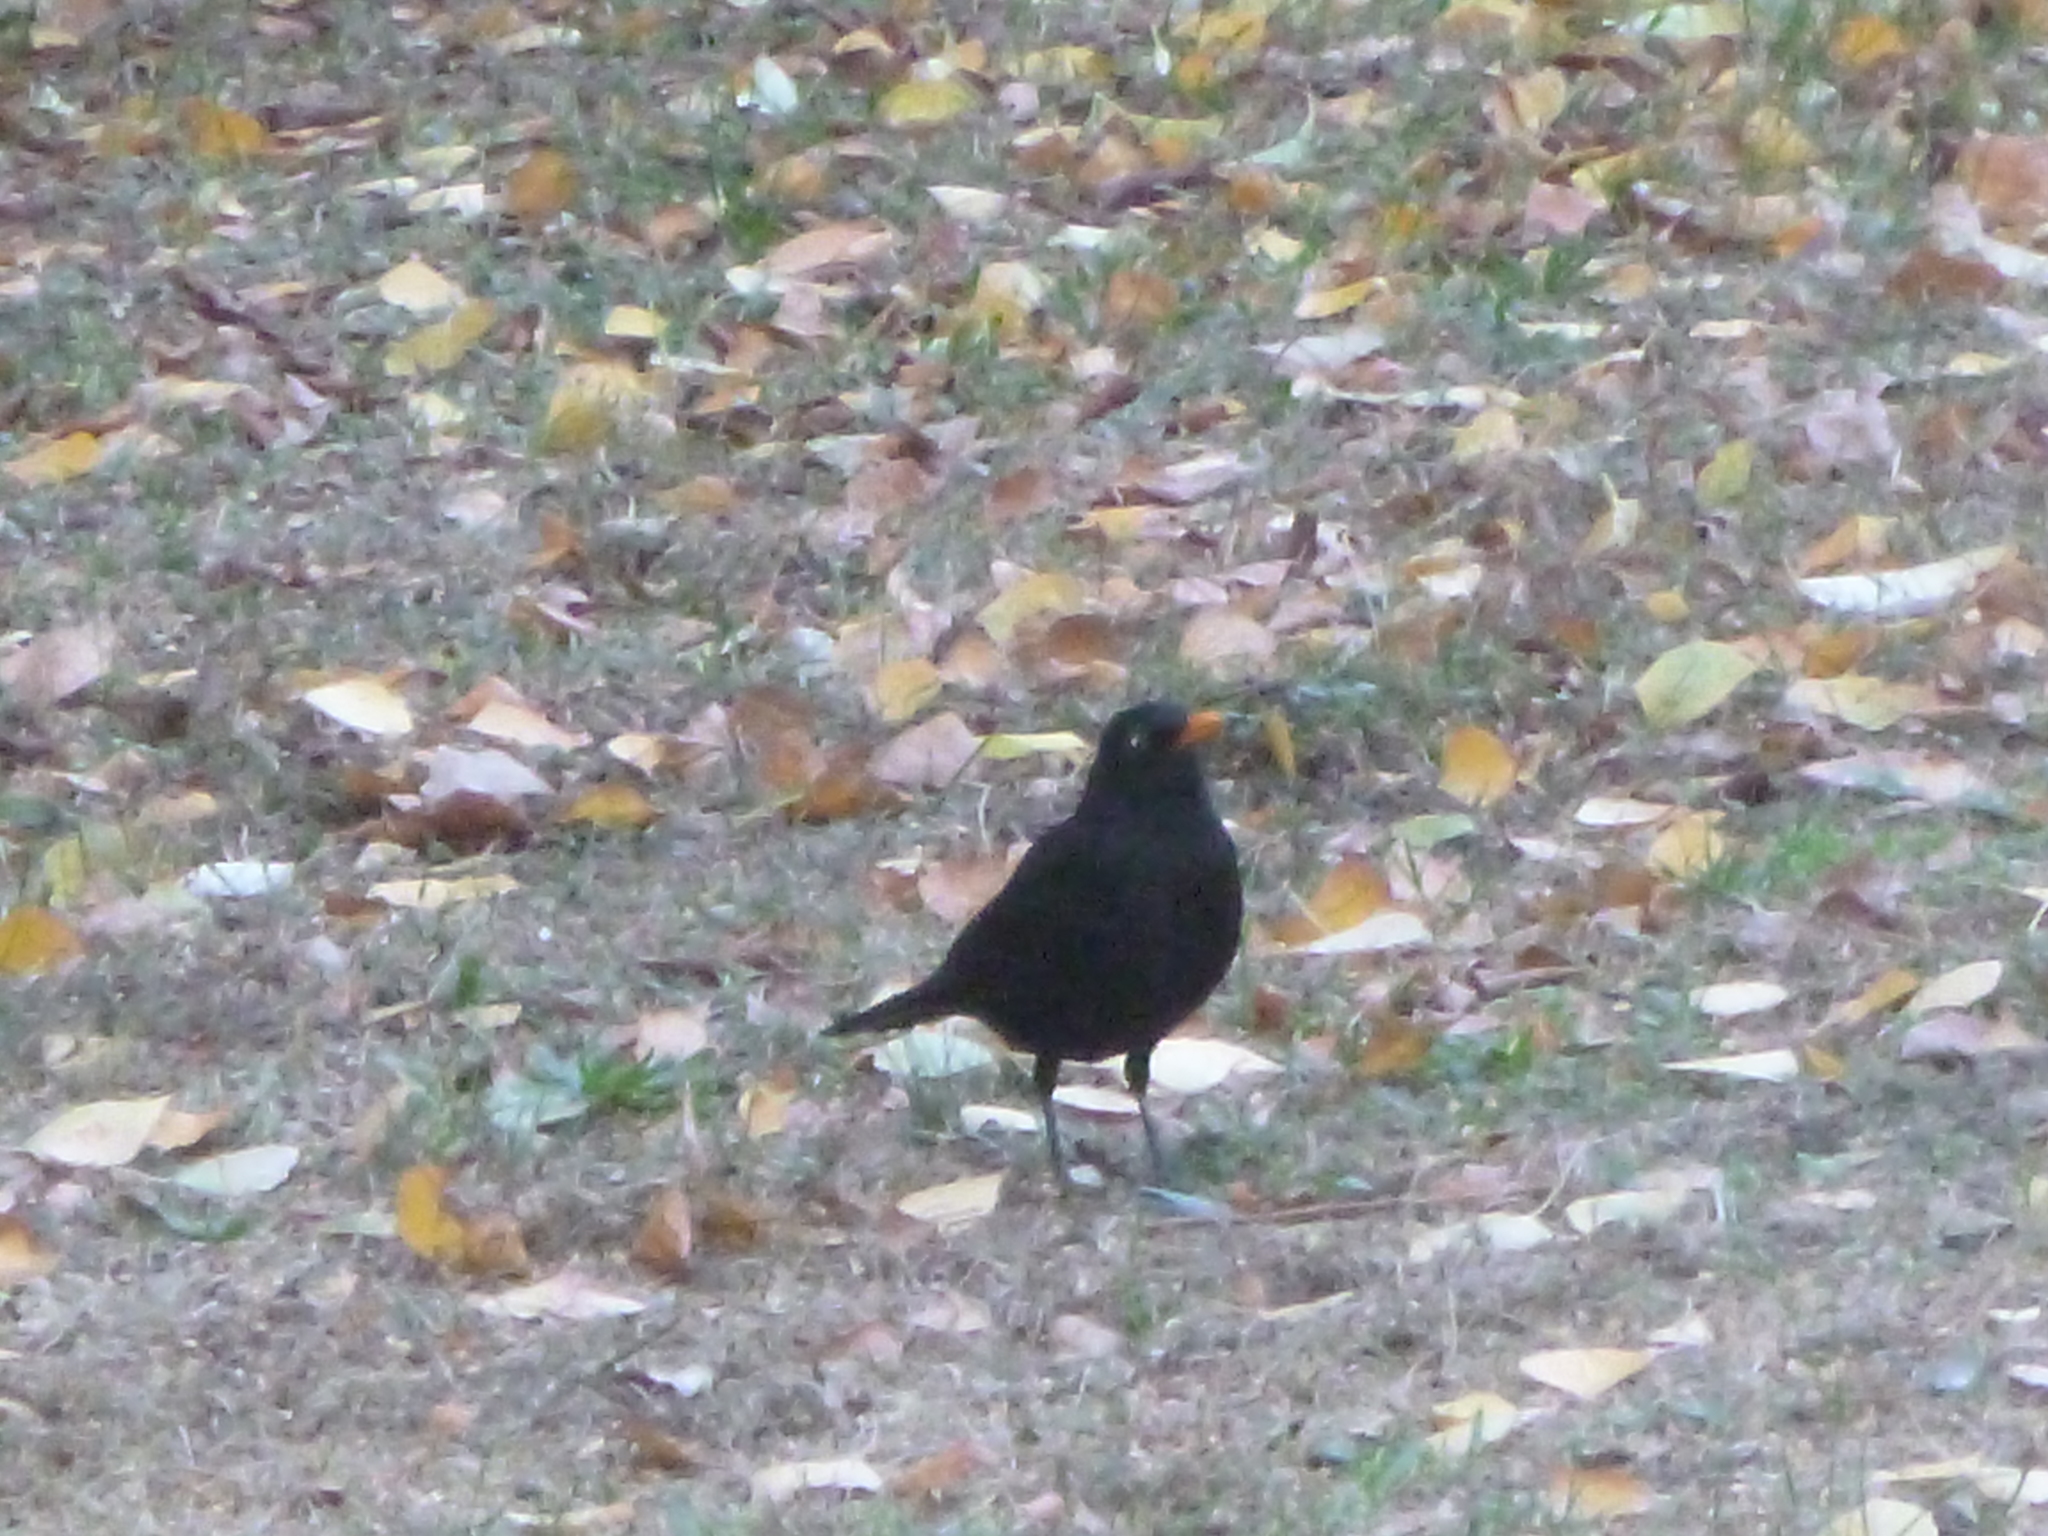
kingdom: Animalia
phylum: Chordata
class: Aves
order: Passeriformes
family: Turdidae
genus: Turdus
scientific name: Turdus merula
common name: Common blackbird
